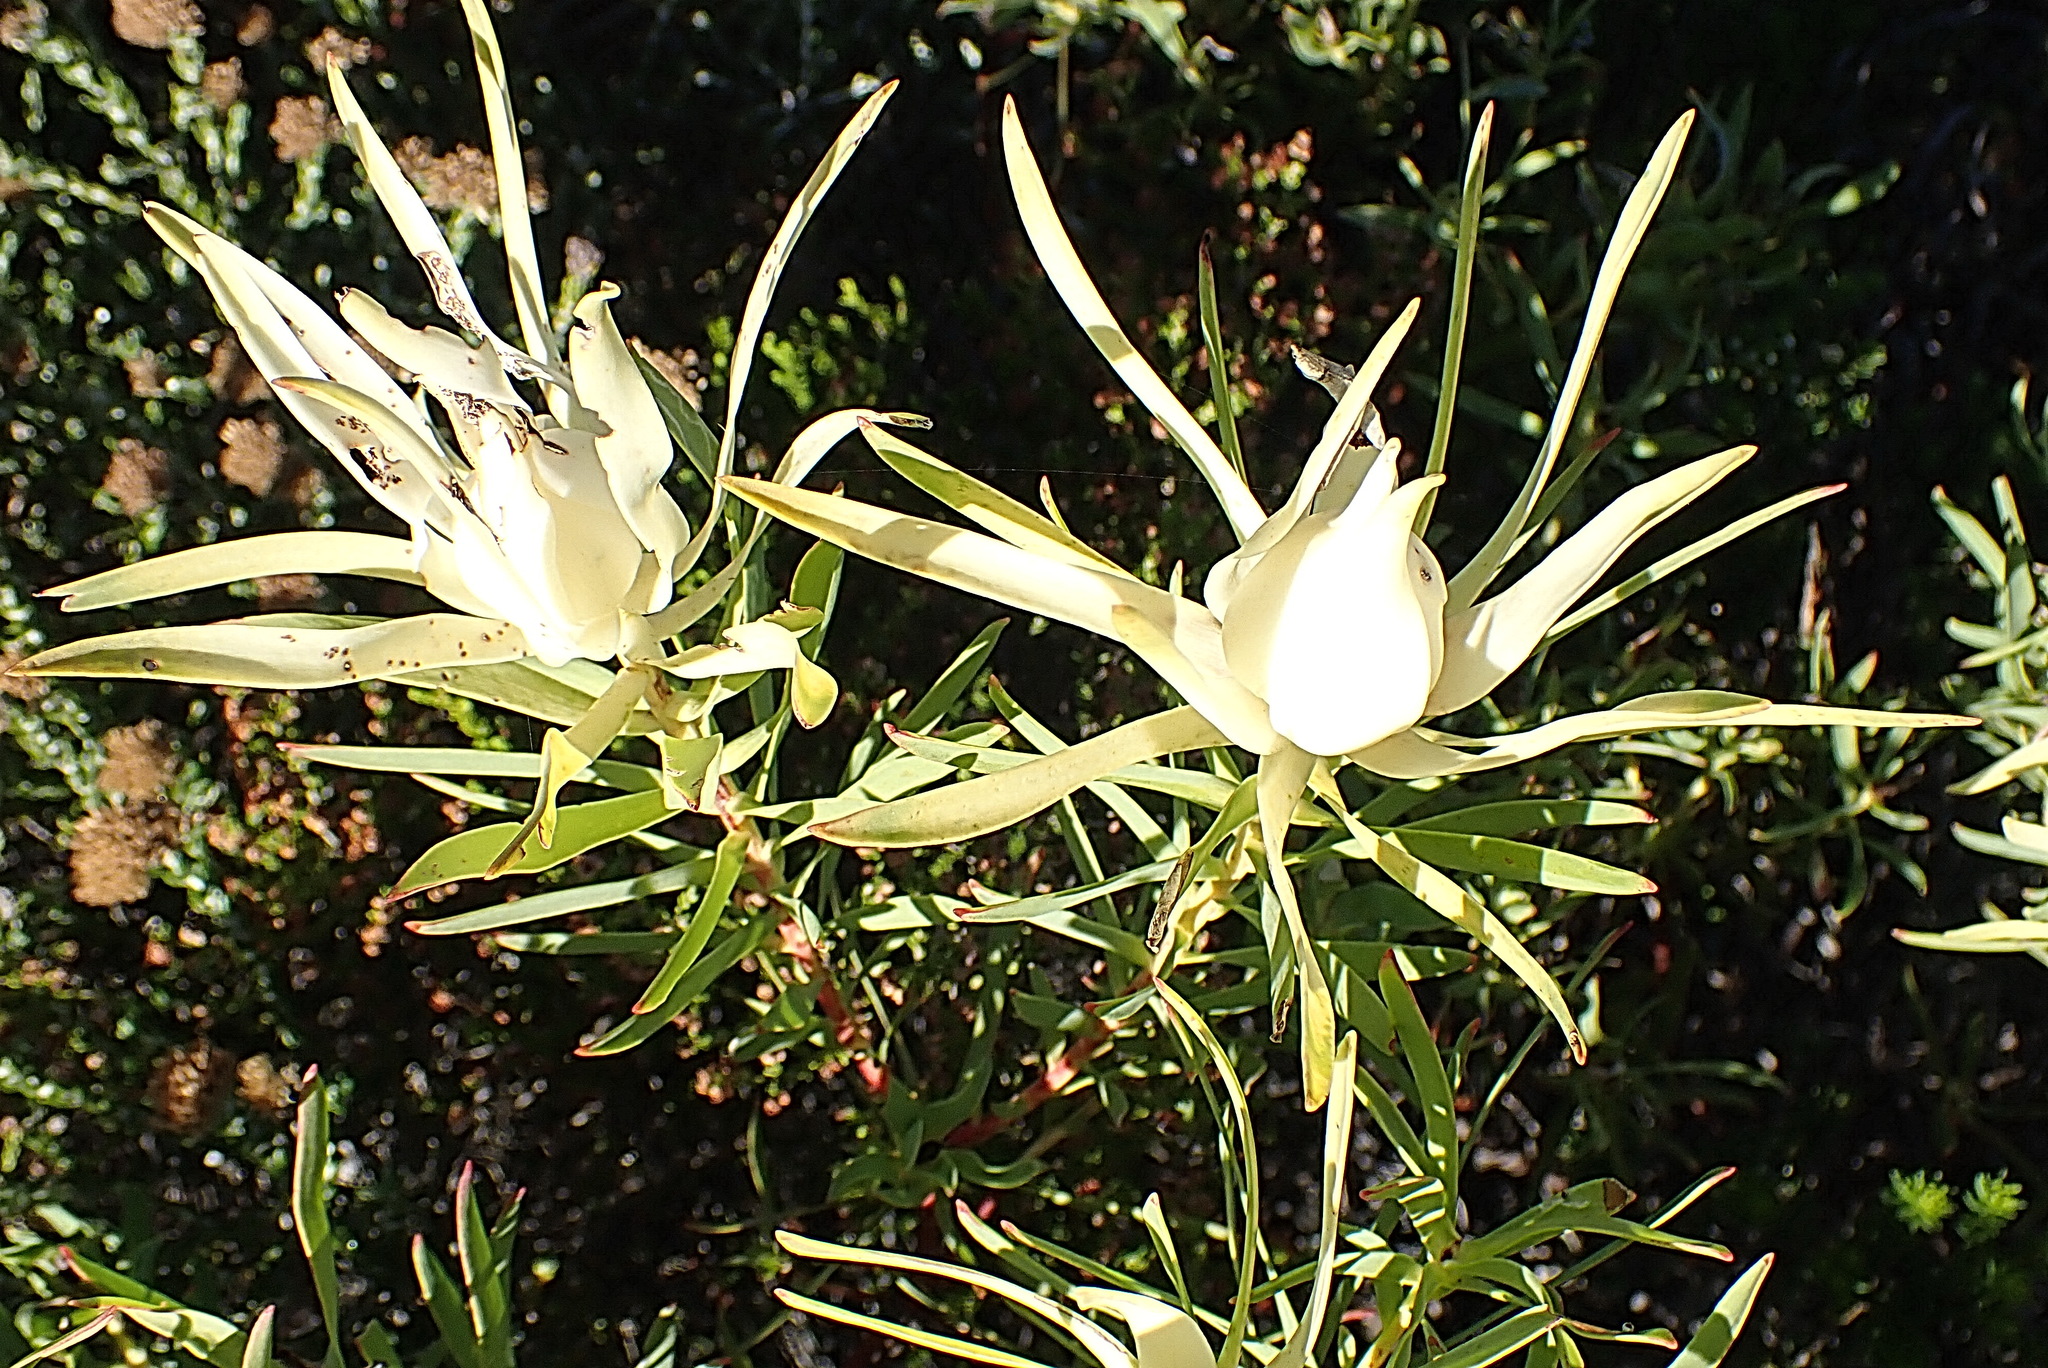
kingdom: Plantae
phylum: Tracheophyta
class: Magnoliopsida
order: Proteales
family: Proteaceae
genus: Leucadendron
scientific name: Leucadendron salignum
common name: Common sunshine conebush
